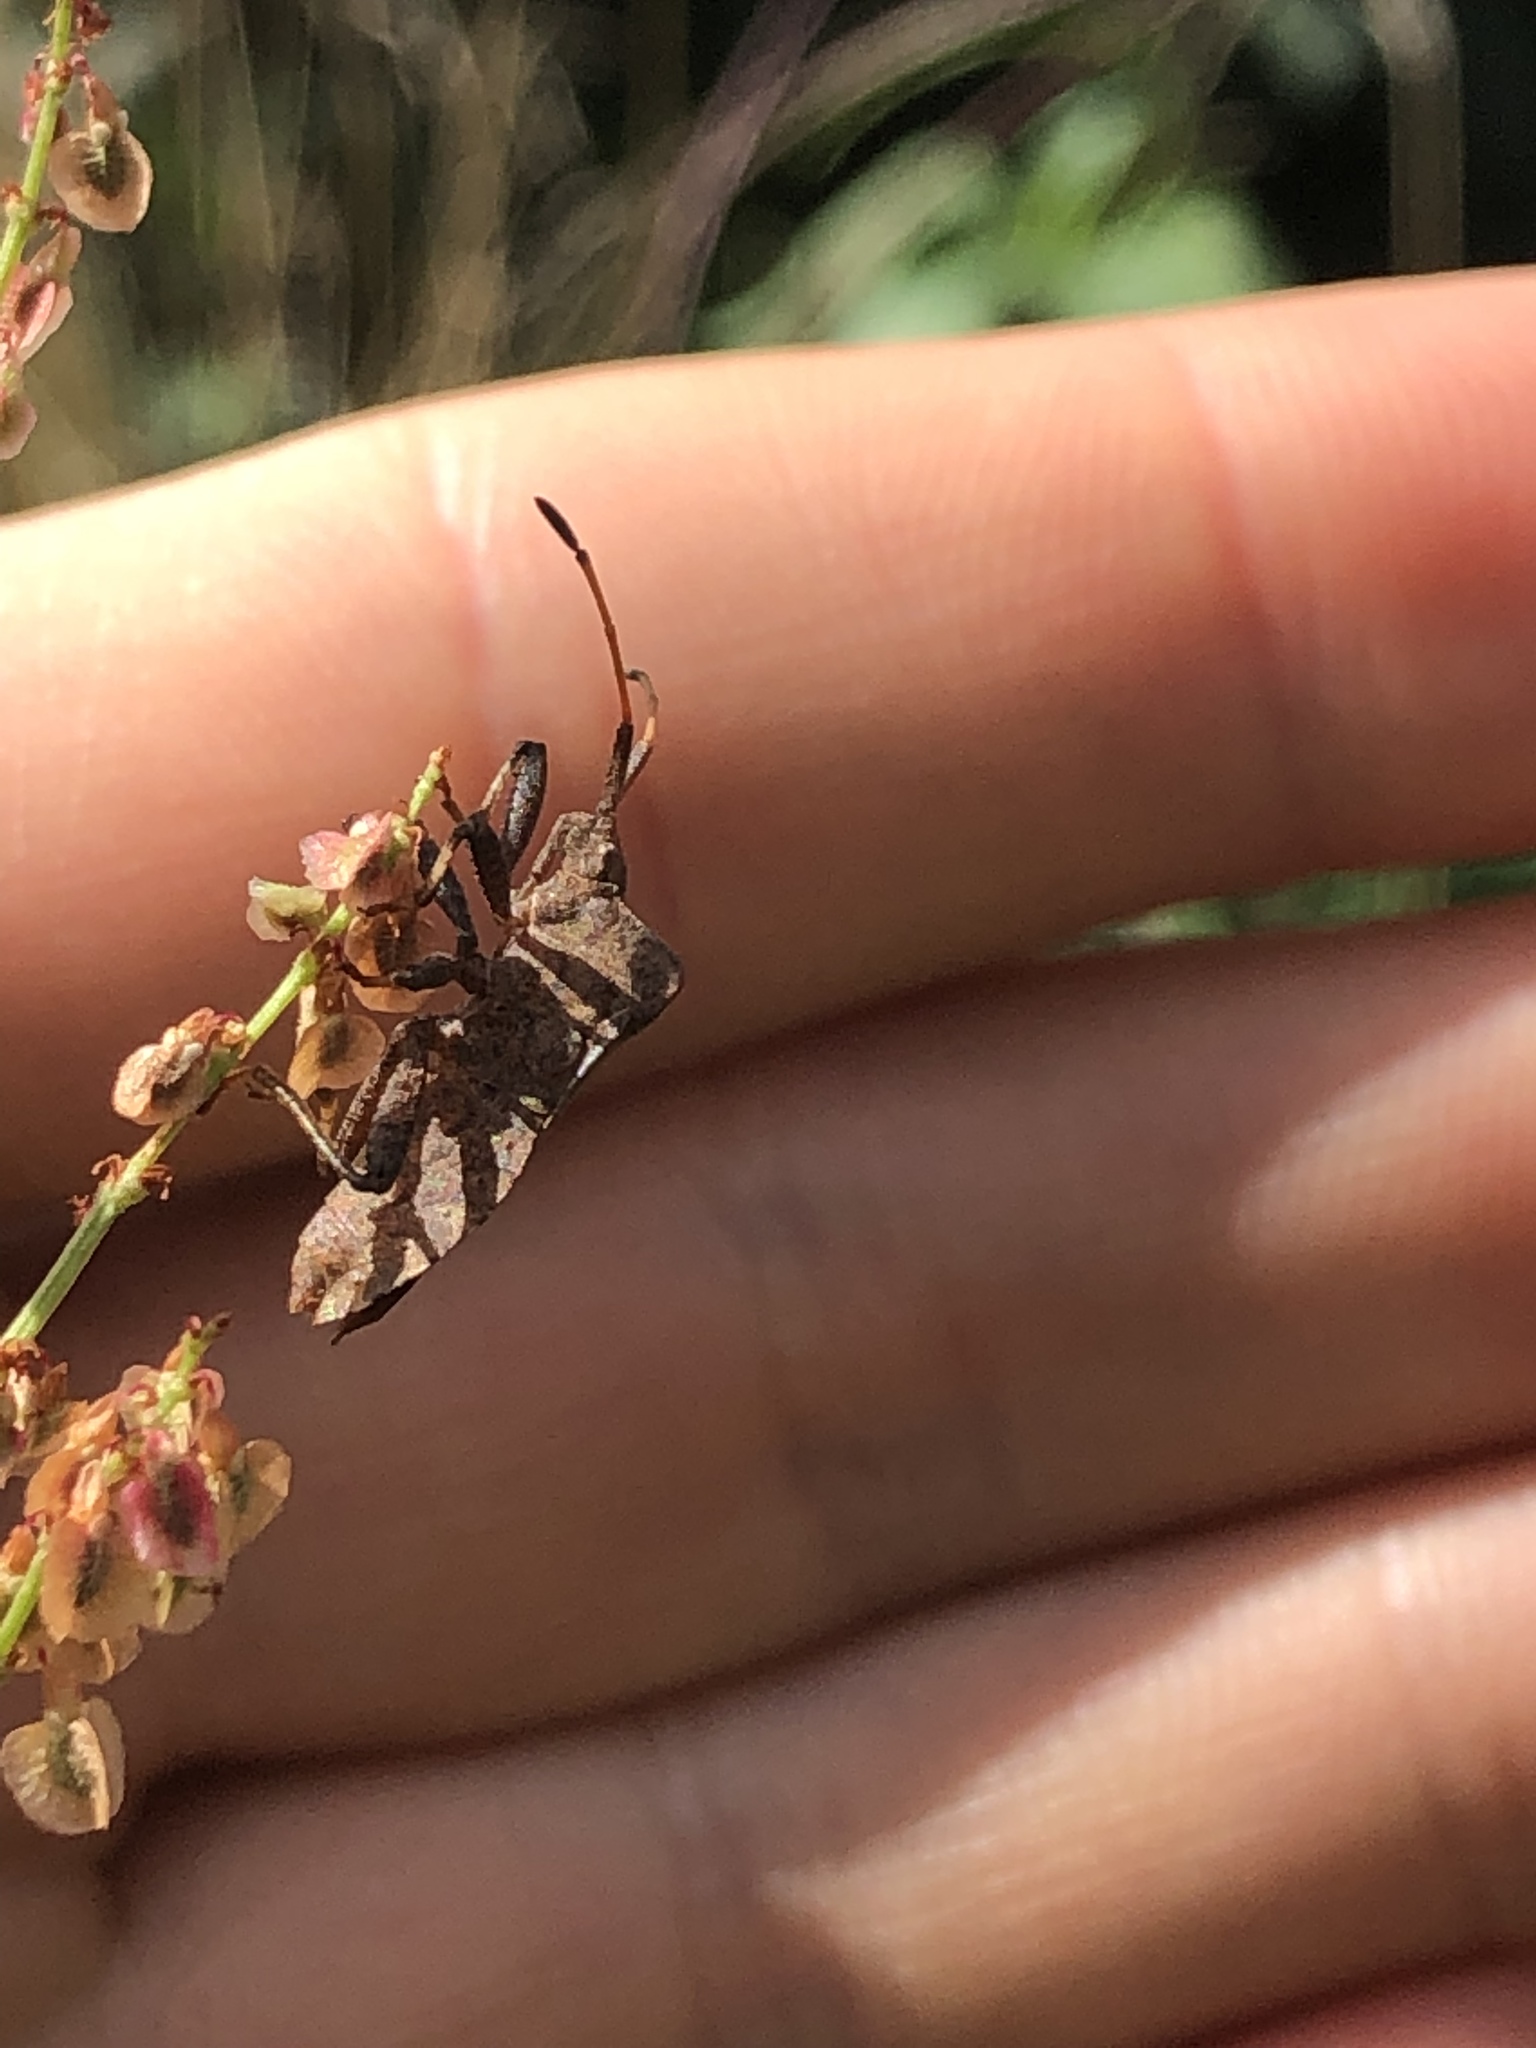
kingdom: Animalia
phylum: Arthropoda
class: Insecta
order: Hemiptera
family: Coreidae
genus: Coreus
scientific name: Coreus marginatus
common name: Dock bug
